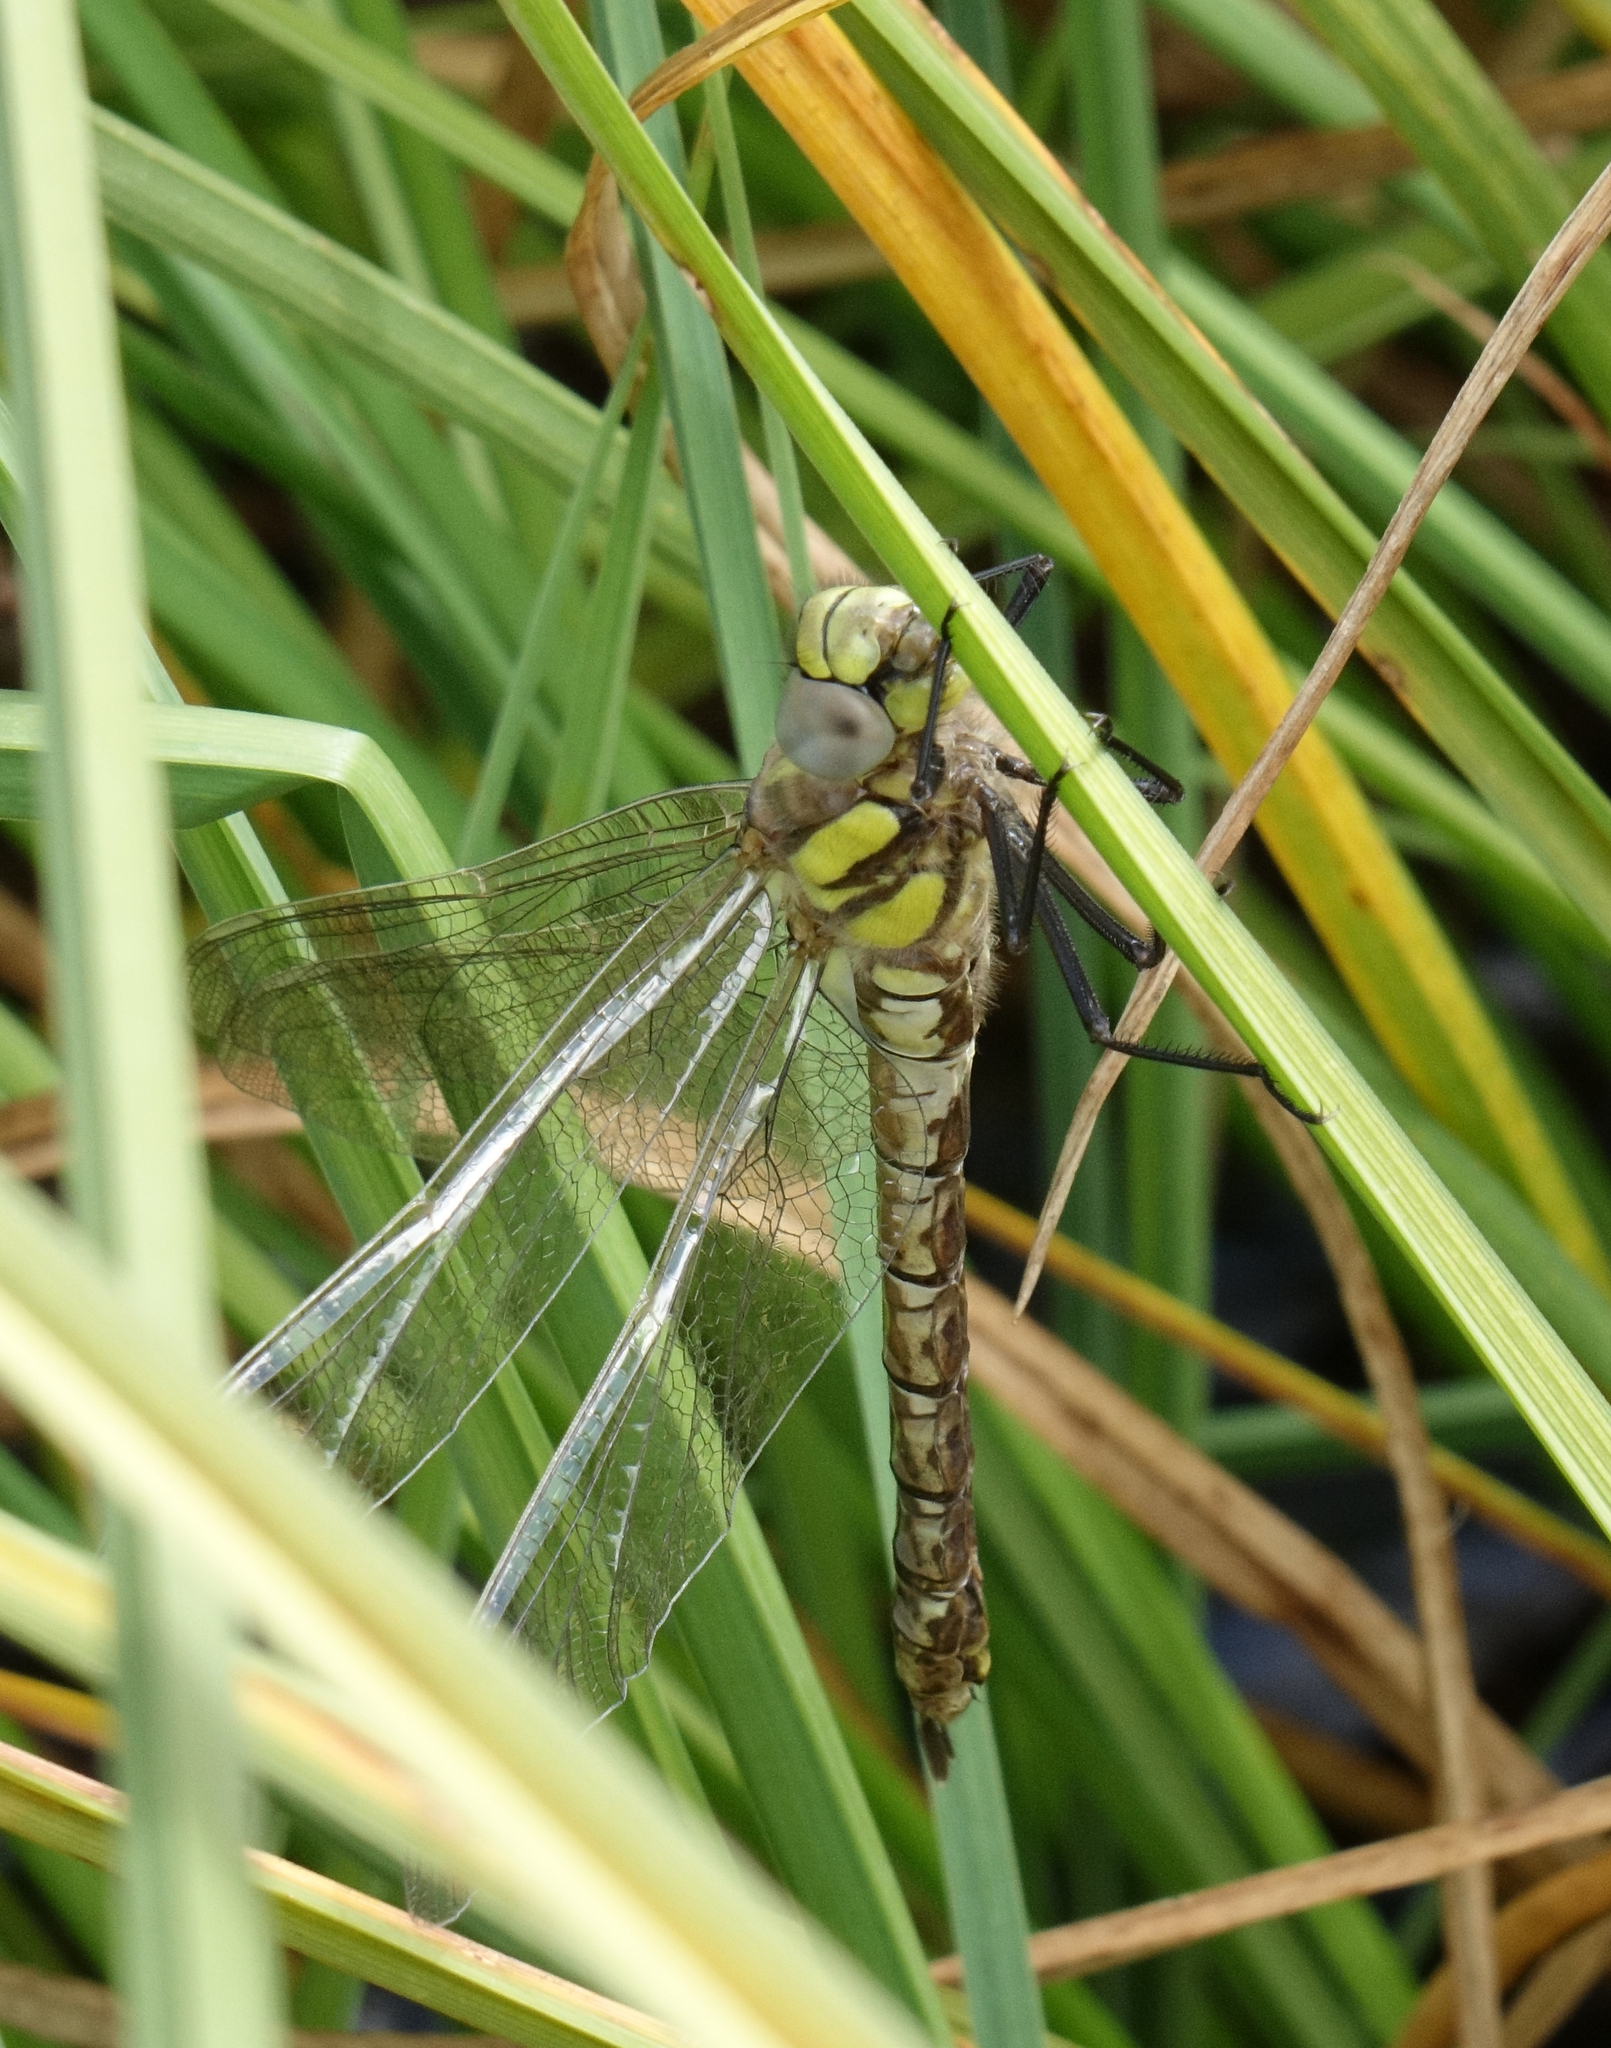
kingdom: Animalia
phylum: Arthropoda
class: Insecta
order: Odonata
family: Aeshnidae
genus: Aeshna
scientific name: Aeshna juncea
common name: Moorland hawker
